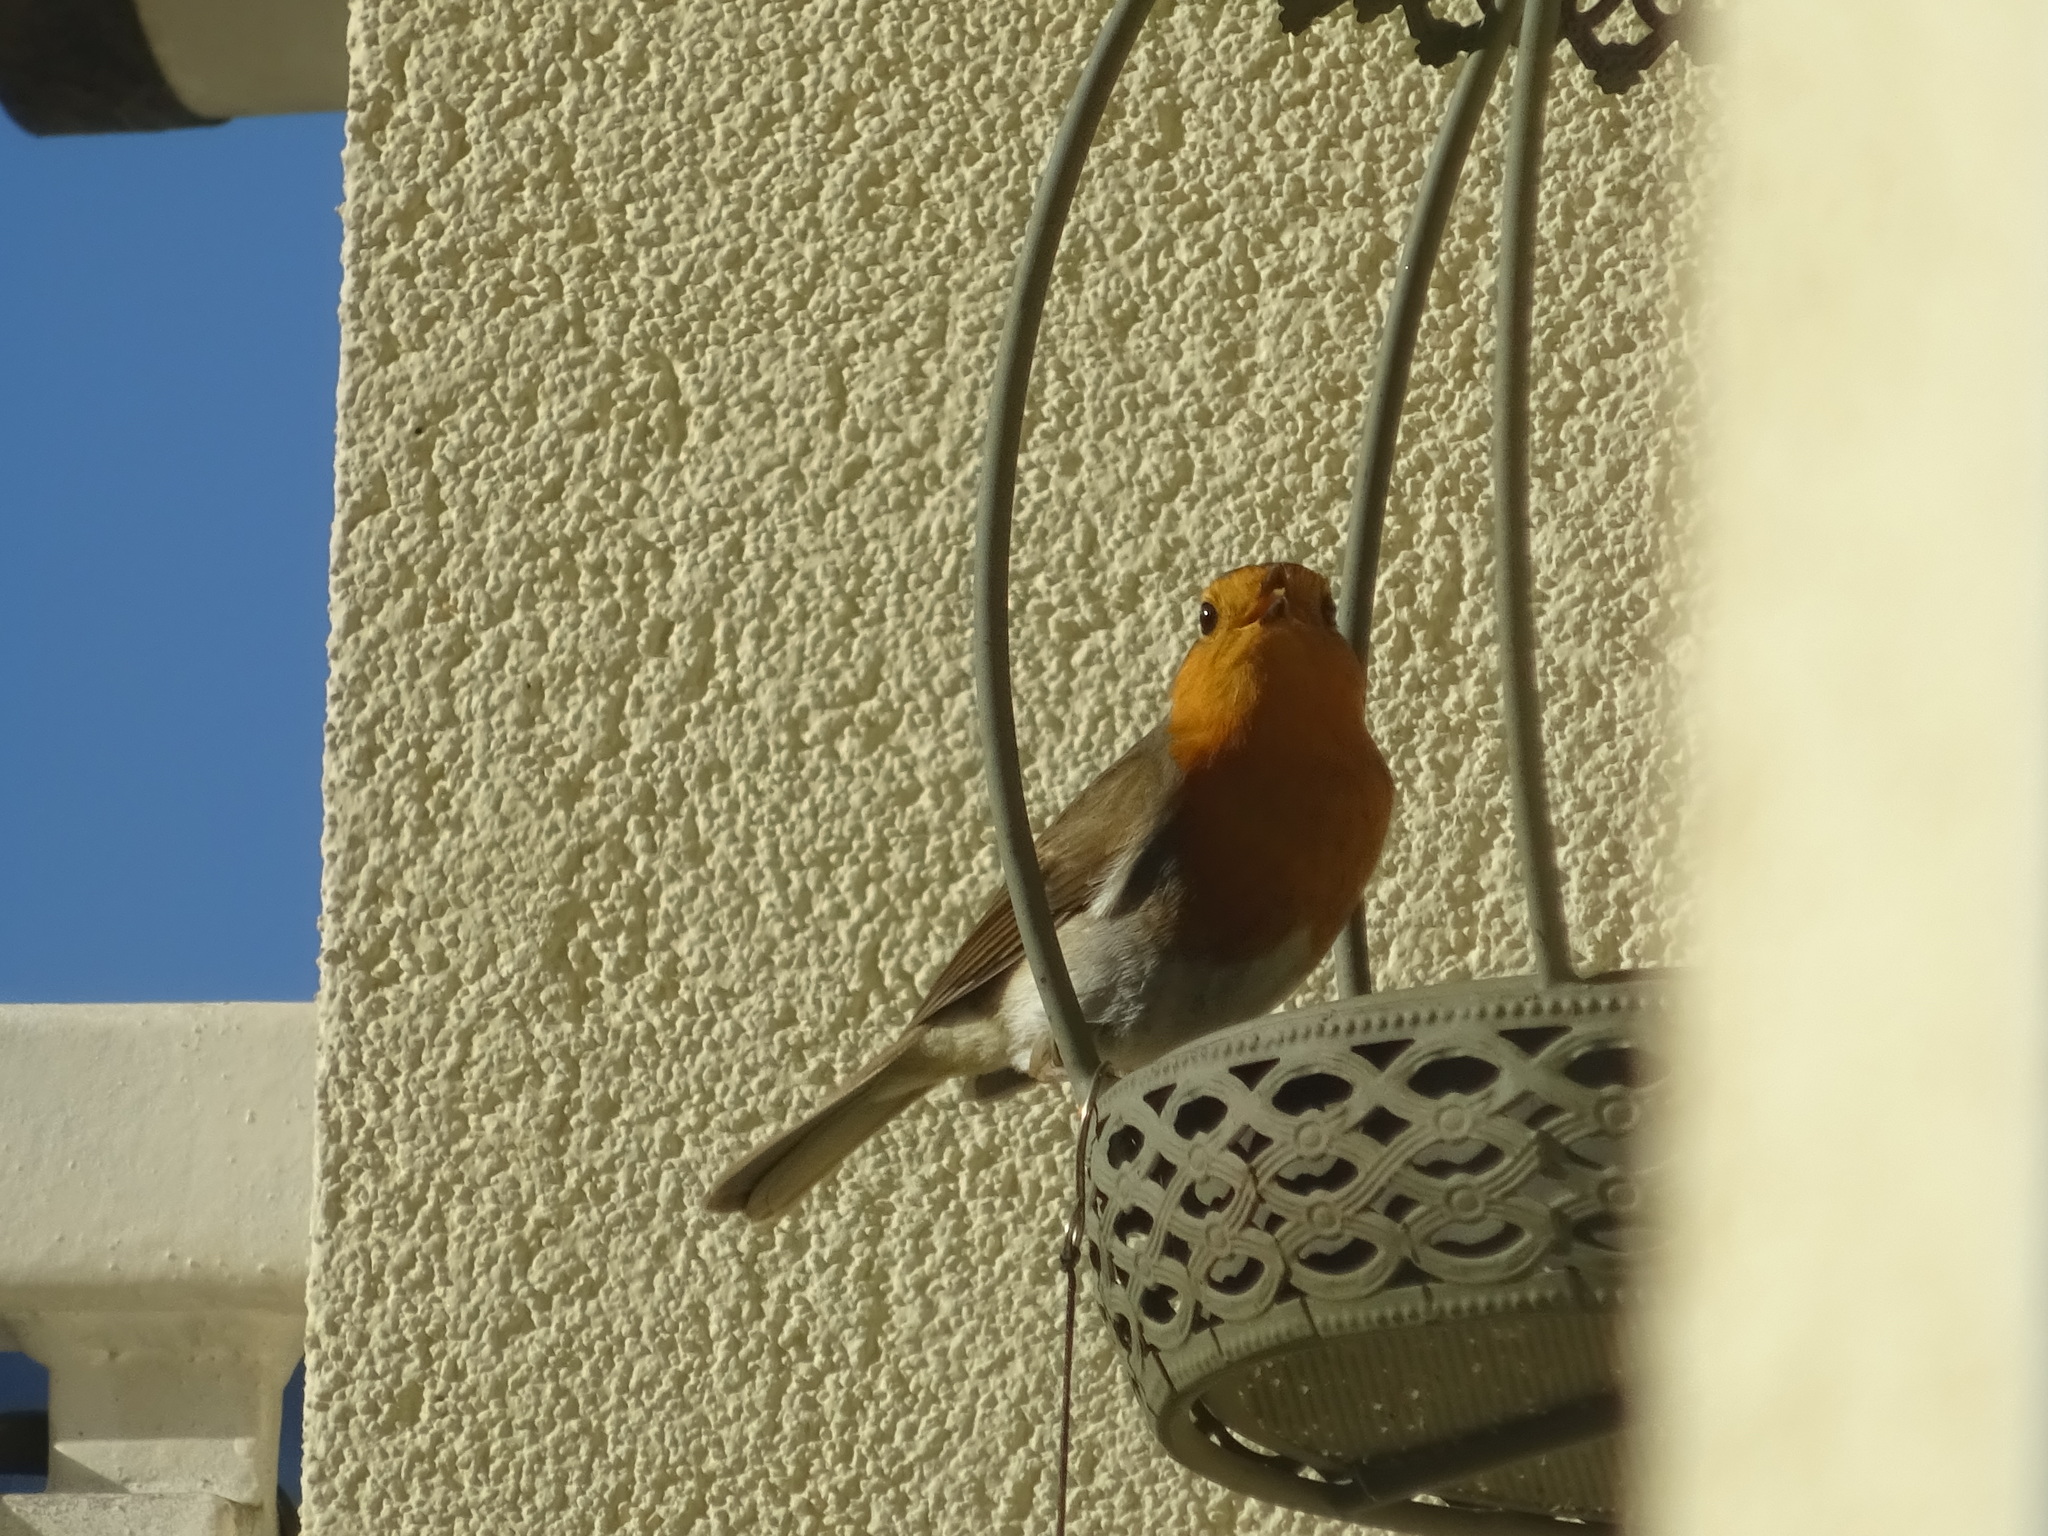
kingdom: Animalia
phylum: Chordata
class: Aves
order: Passeriformes
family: Muscicapidae
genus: Erithacus
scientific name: Erithacus rubecula
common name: European robin
